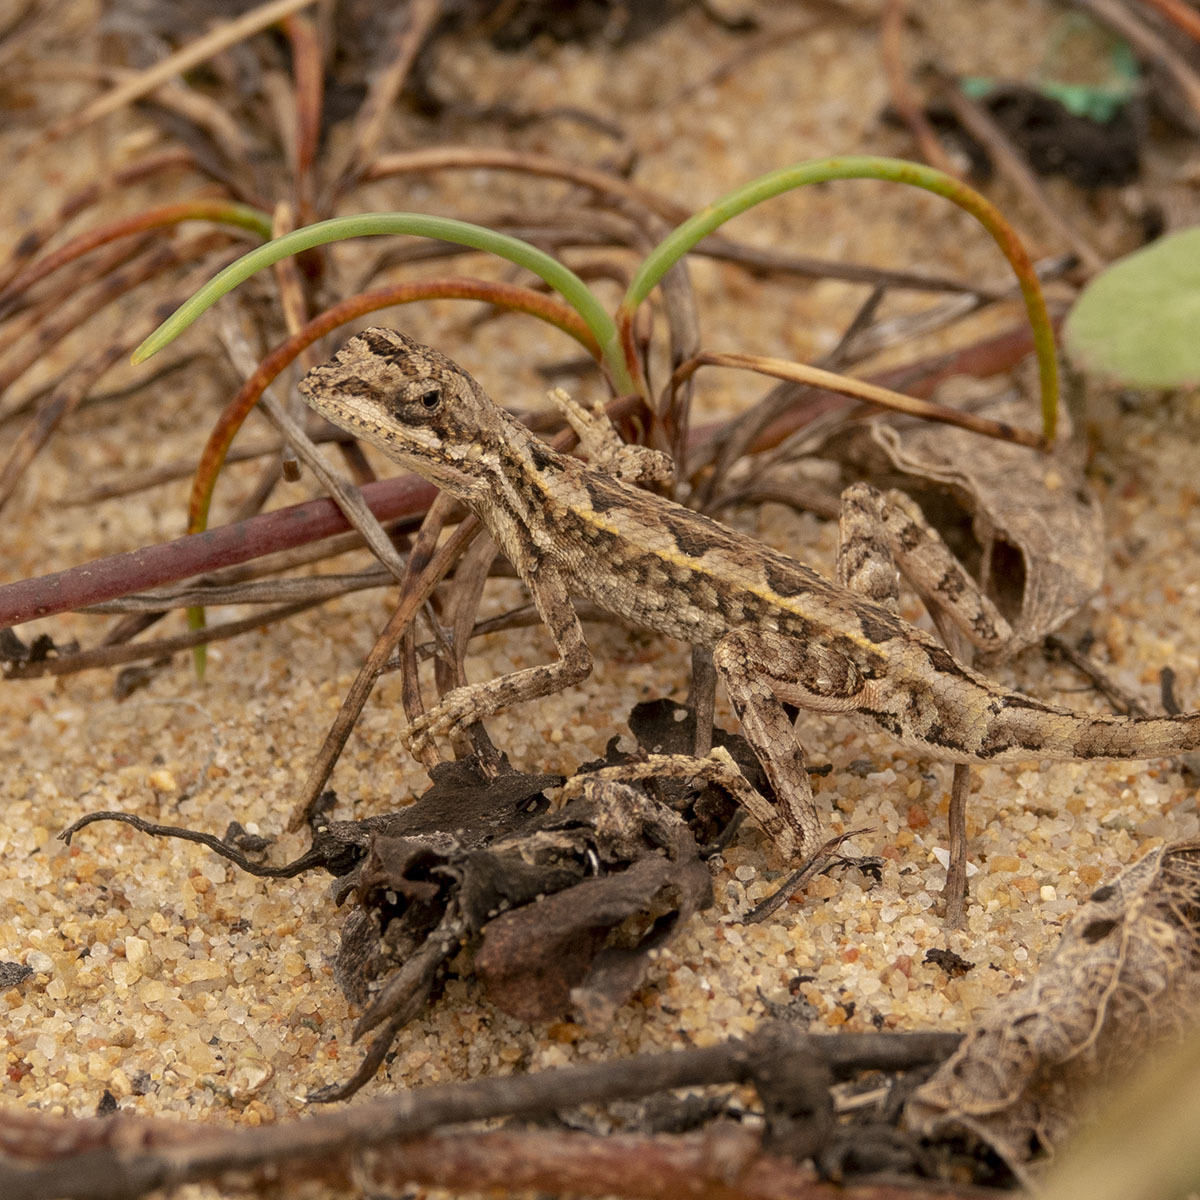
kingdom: Animalia
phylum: Chordata
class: Squamata
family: Agamidae
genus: Sitana
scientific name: Sitana ponticeriana
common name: Pondichéry fan throated lizard
